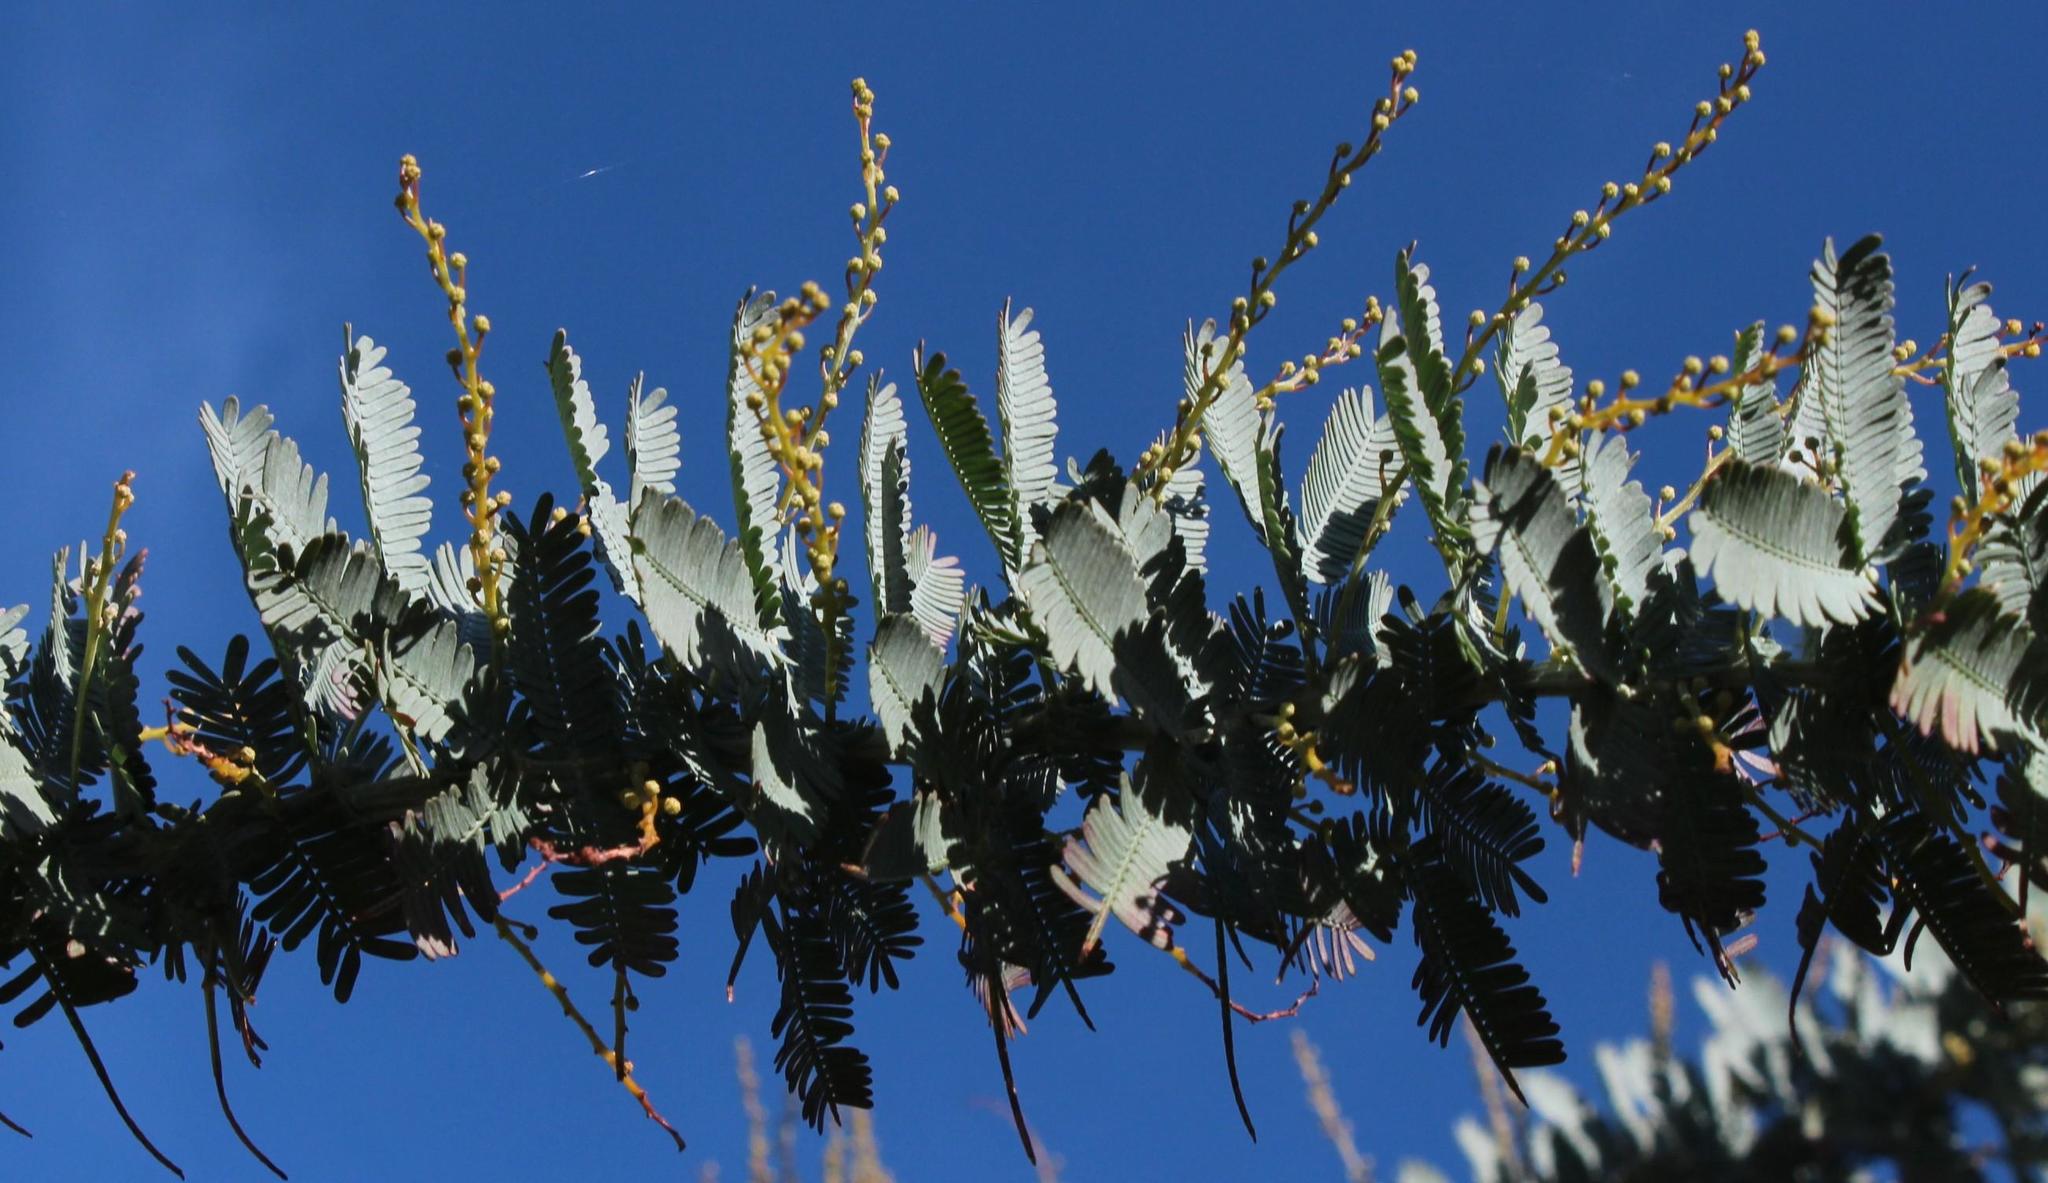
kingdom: Plantae
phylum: Tracheophyta
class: Magnoliopsida
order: Fabales
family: Fabaceae
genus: Acacia
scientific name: Acacia baileyana
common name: Cootamundra wattle
